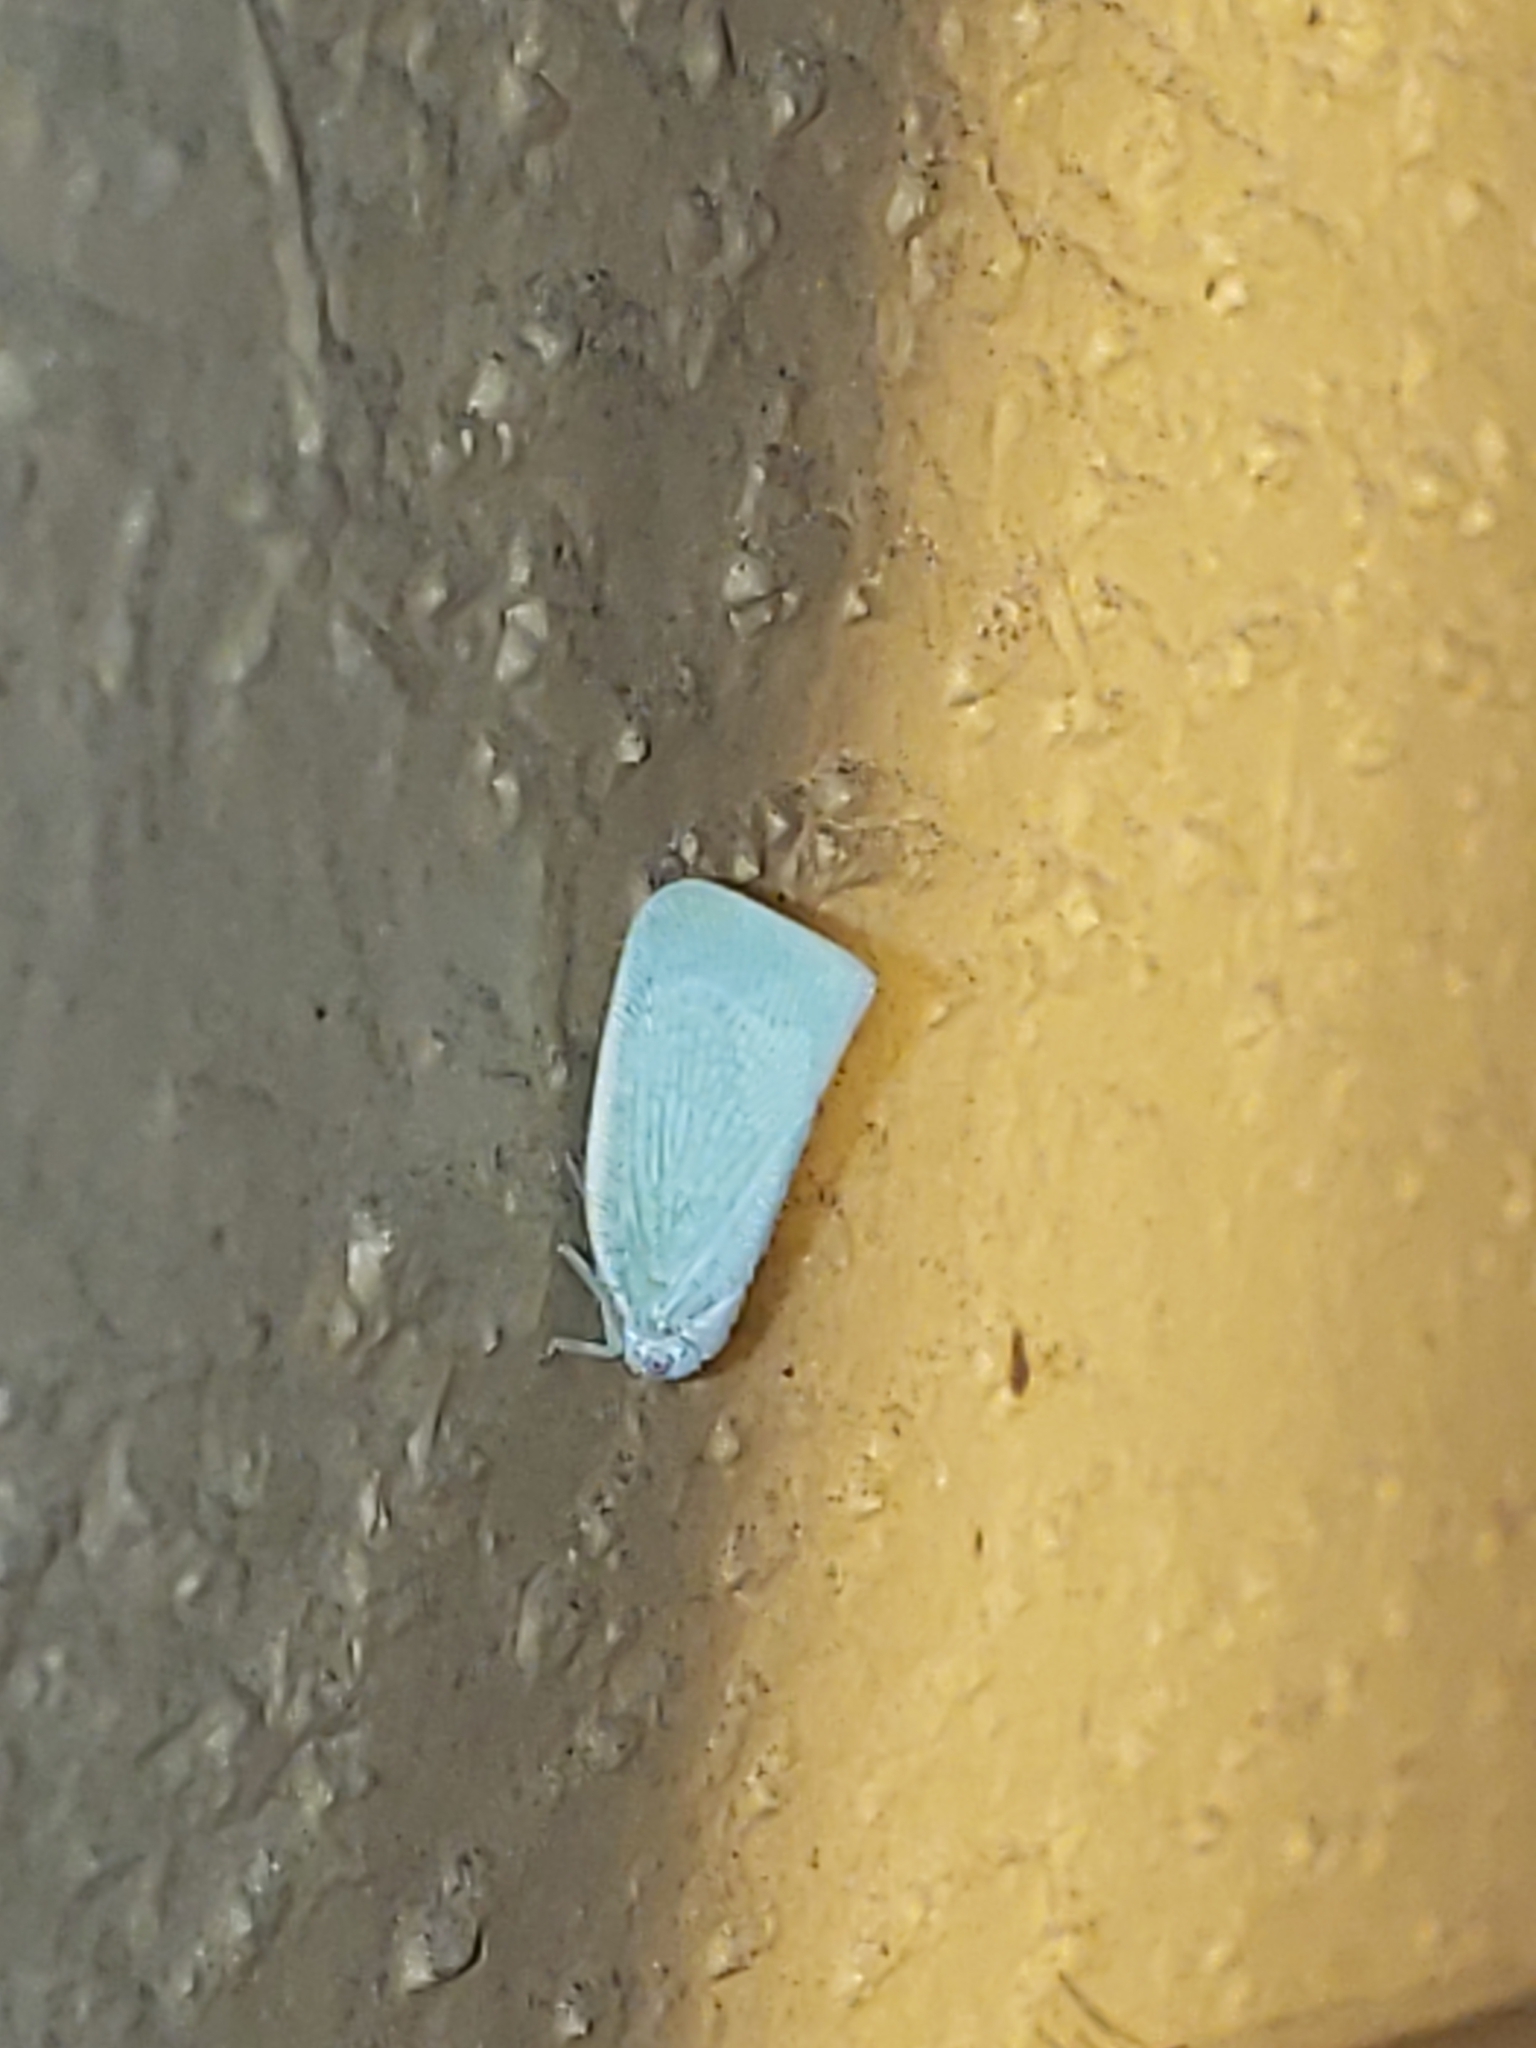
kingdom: Animalia
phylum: Arthropoda
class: Insecta
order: Hemiptera
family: Flatidae
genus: Flatormenis
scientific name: Flatormenis proxima
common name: Northern flatid planthopper
